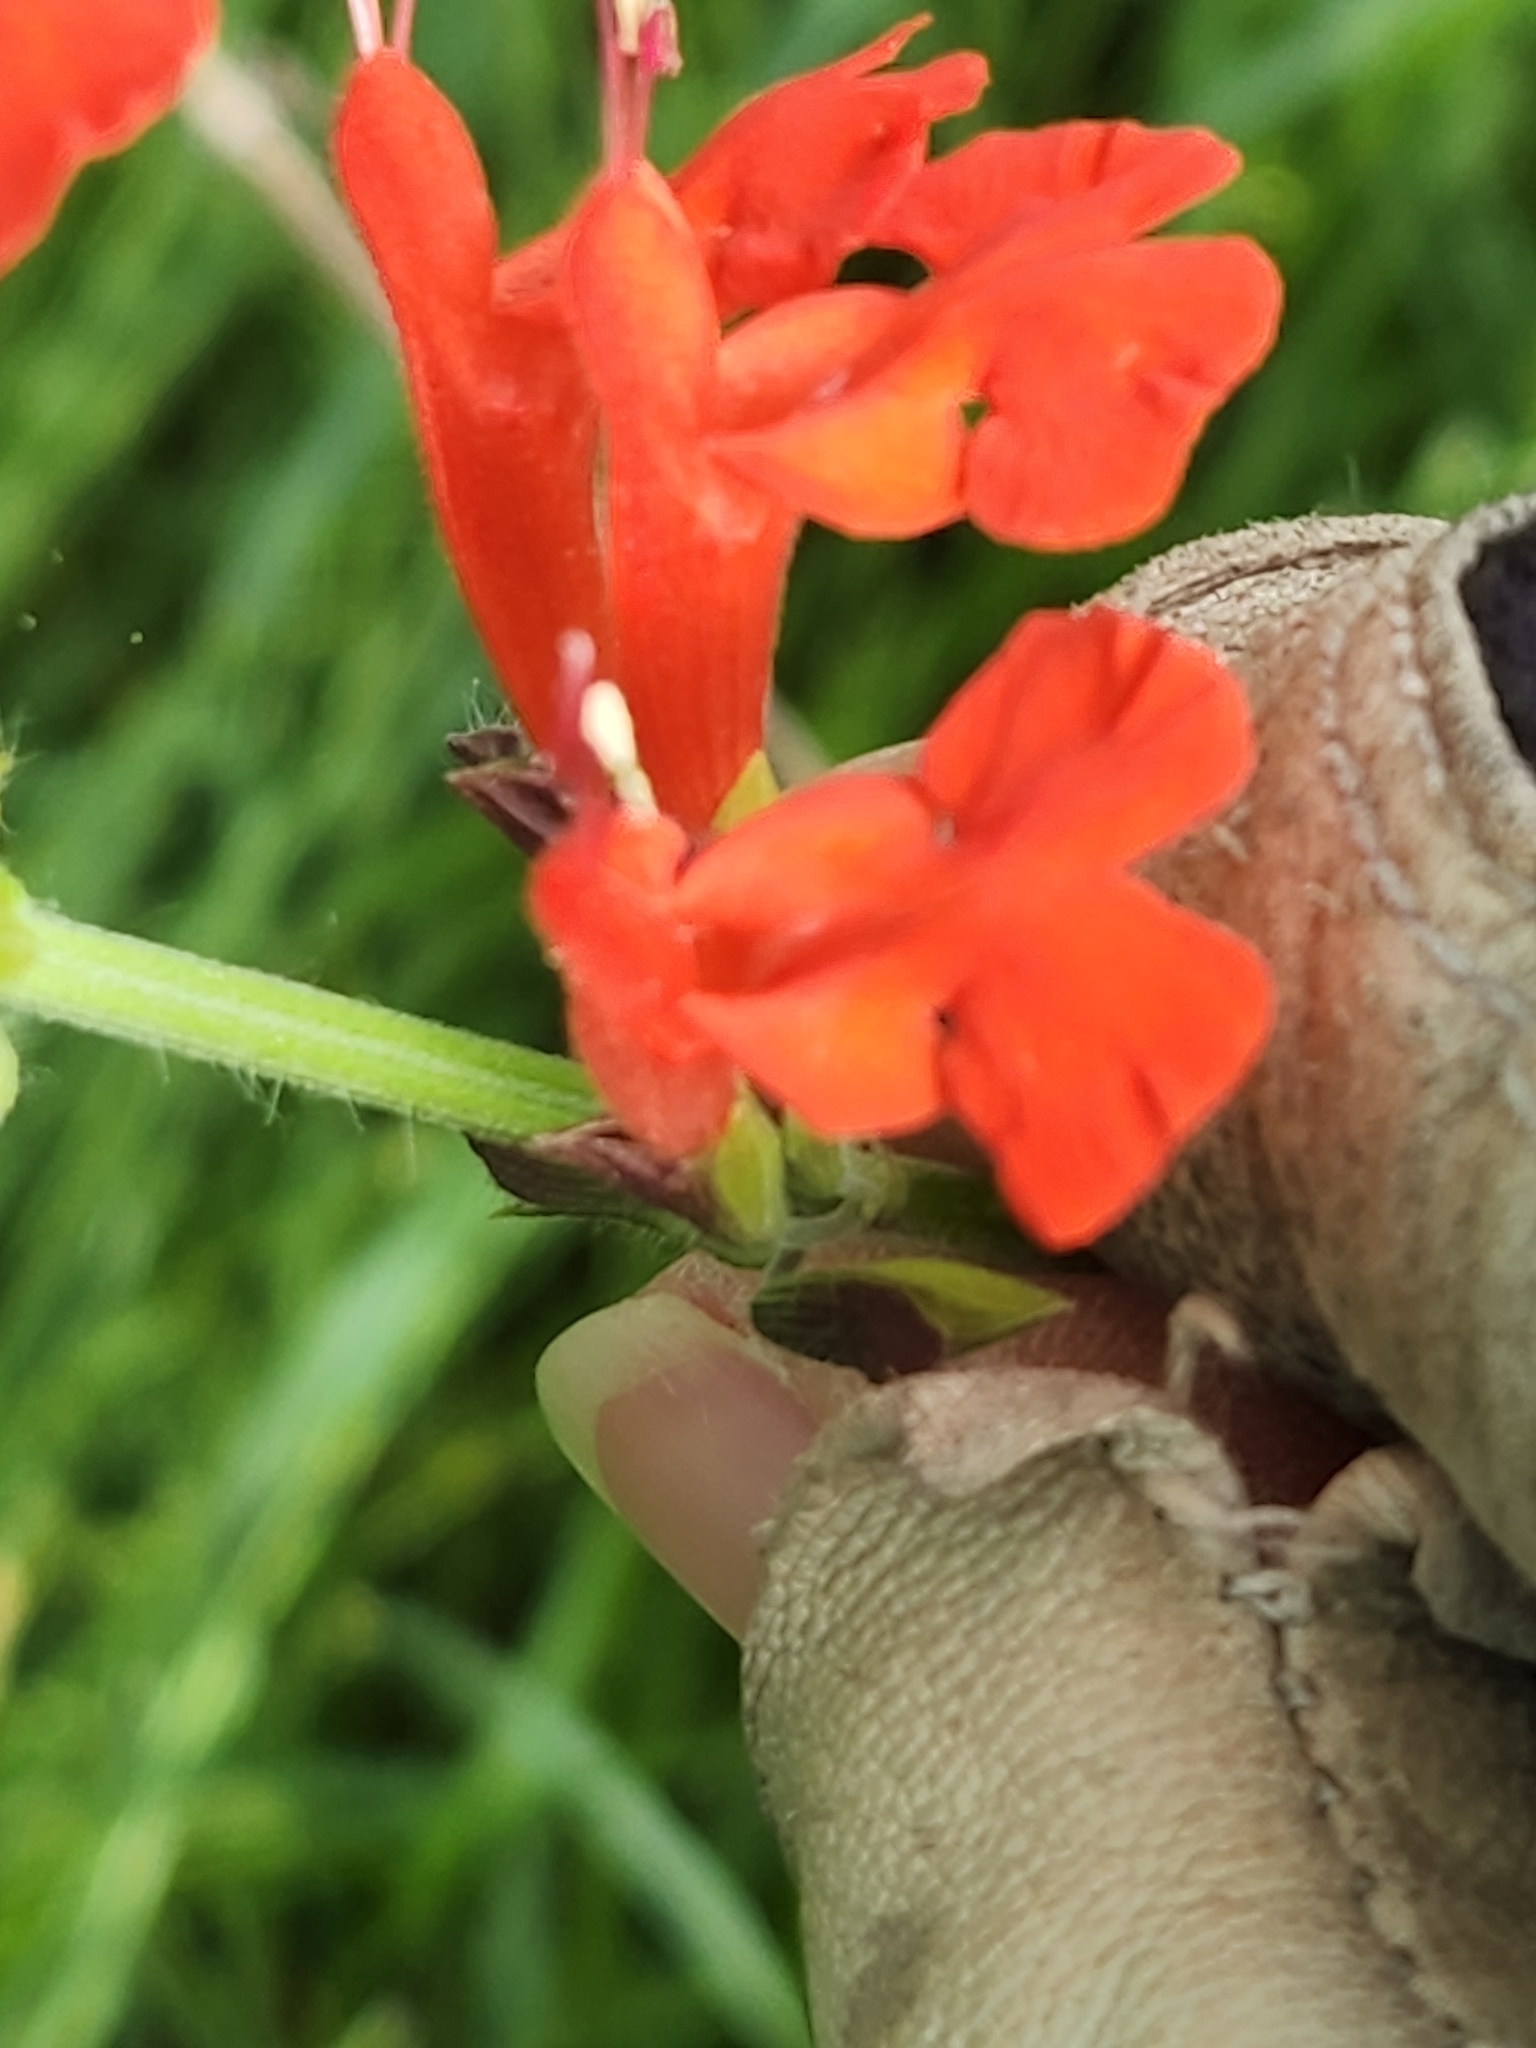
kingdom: Plantae
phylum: Tracheophyta
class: Magnoliopsida
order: Lamiales
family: Lamiaceae
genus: Salvia
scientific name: Salvia coccinea
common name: Blood sage
